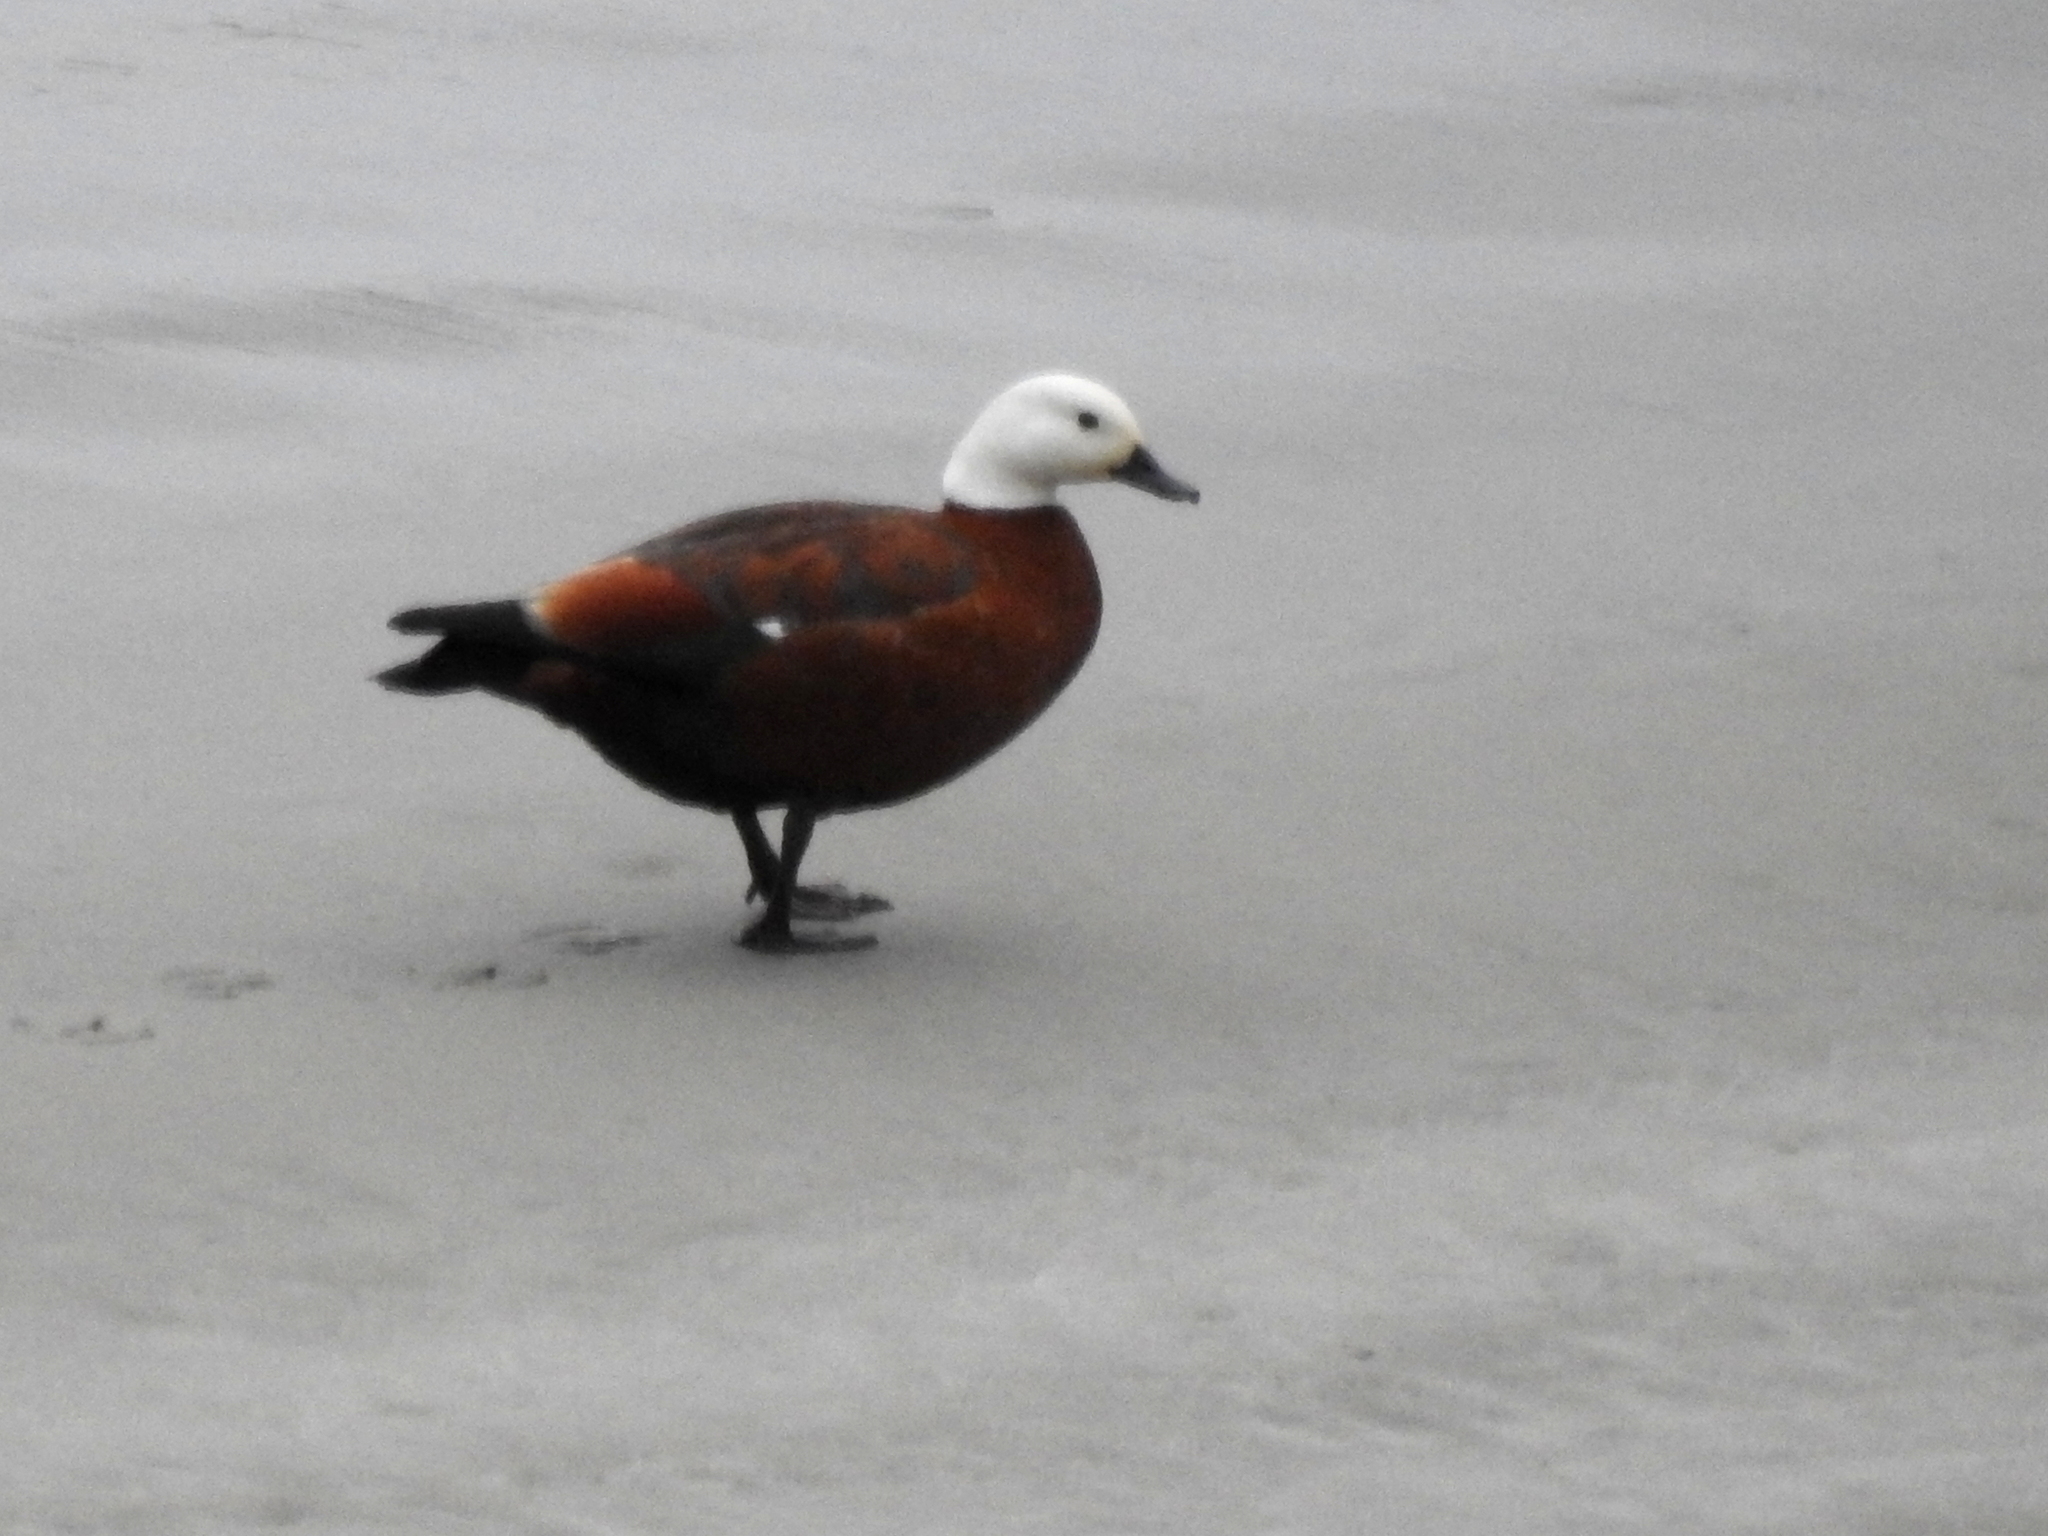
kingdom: Animalia
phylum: Chordata
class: Aves
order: Anseriformes
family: Anatidae
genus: Tadorna
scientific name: Tadorna variegata
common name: Paradise shelduck
